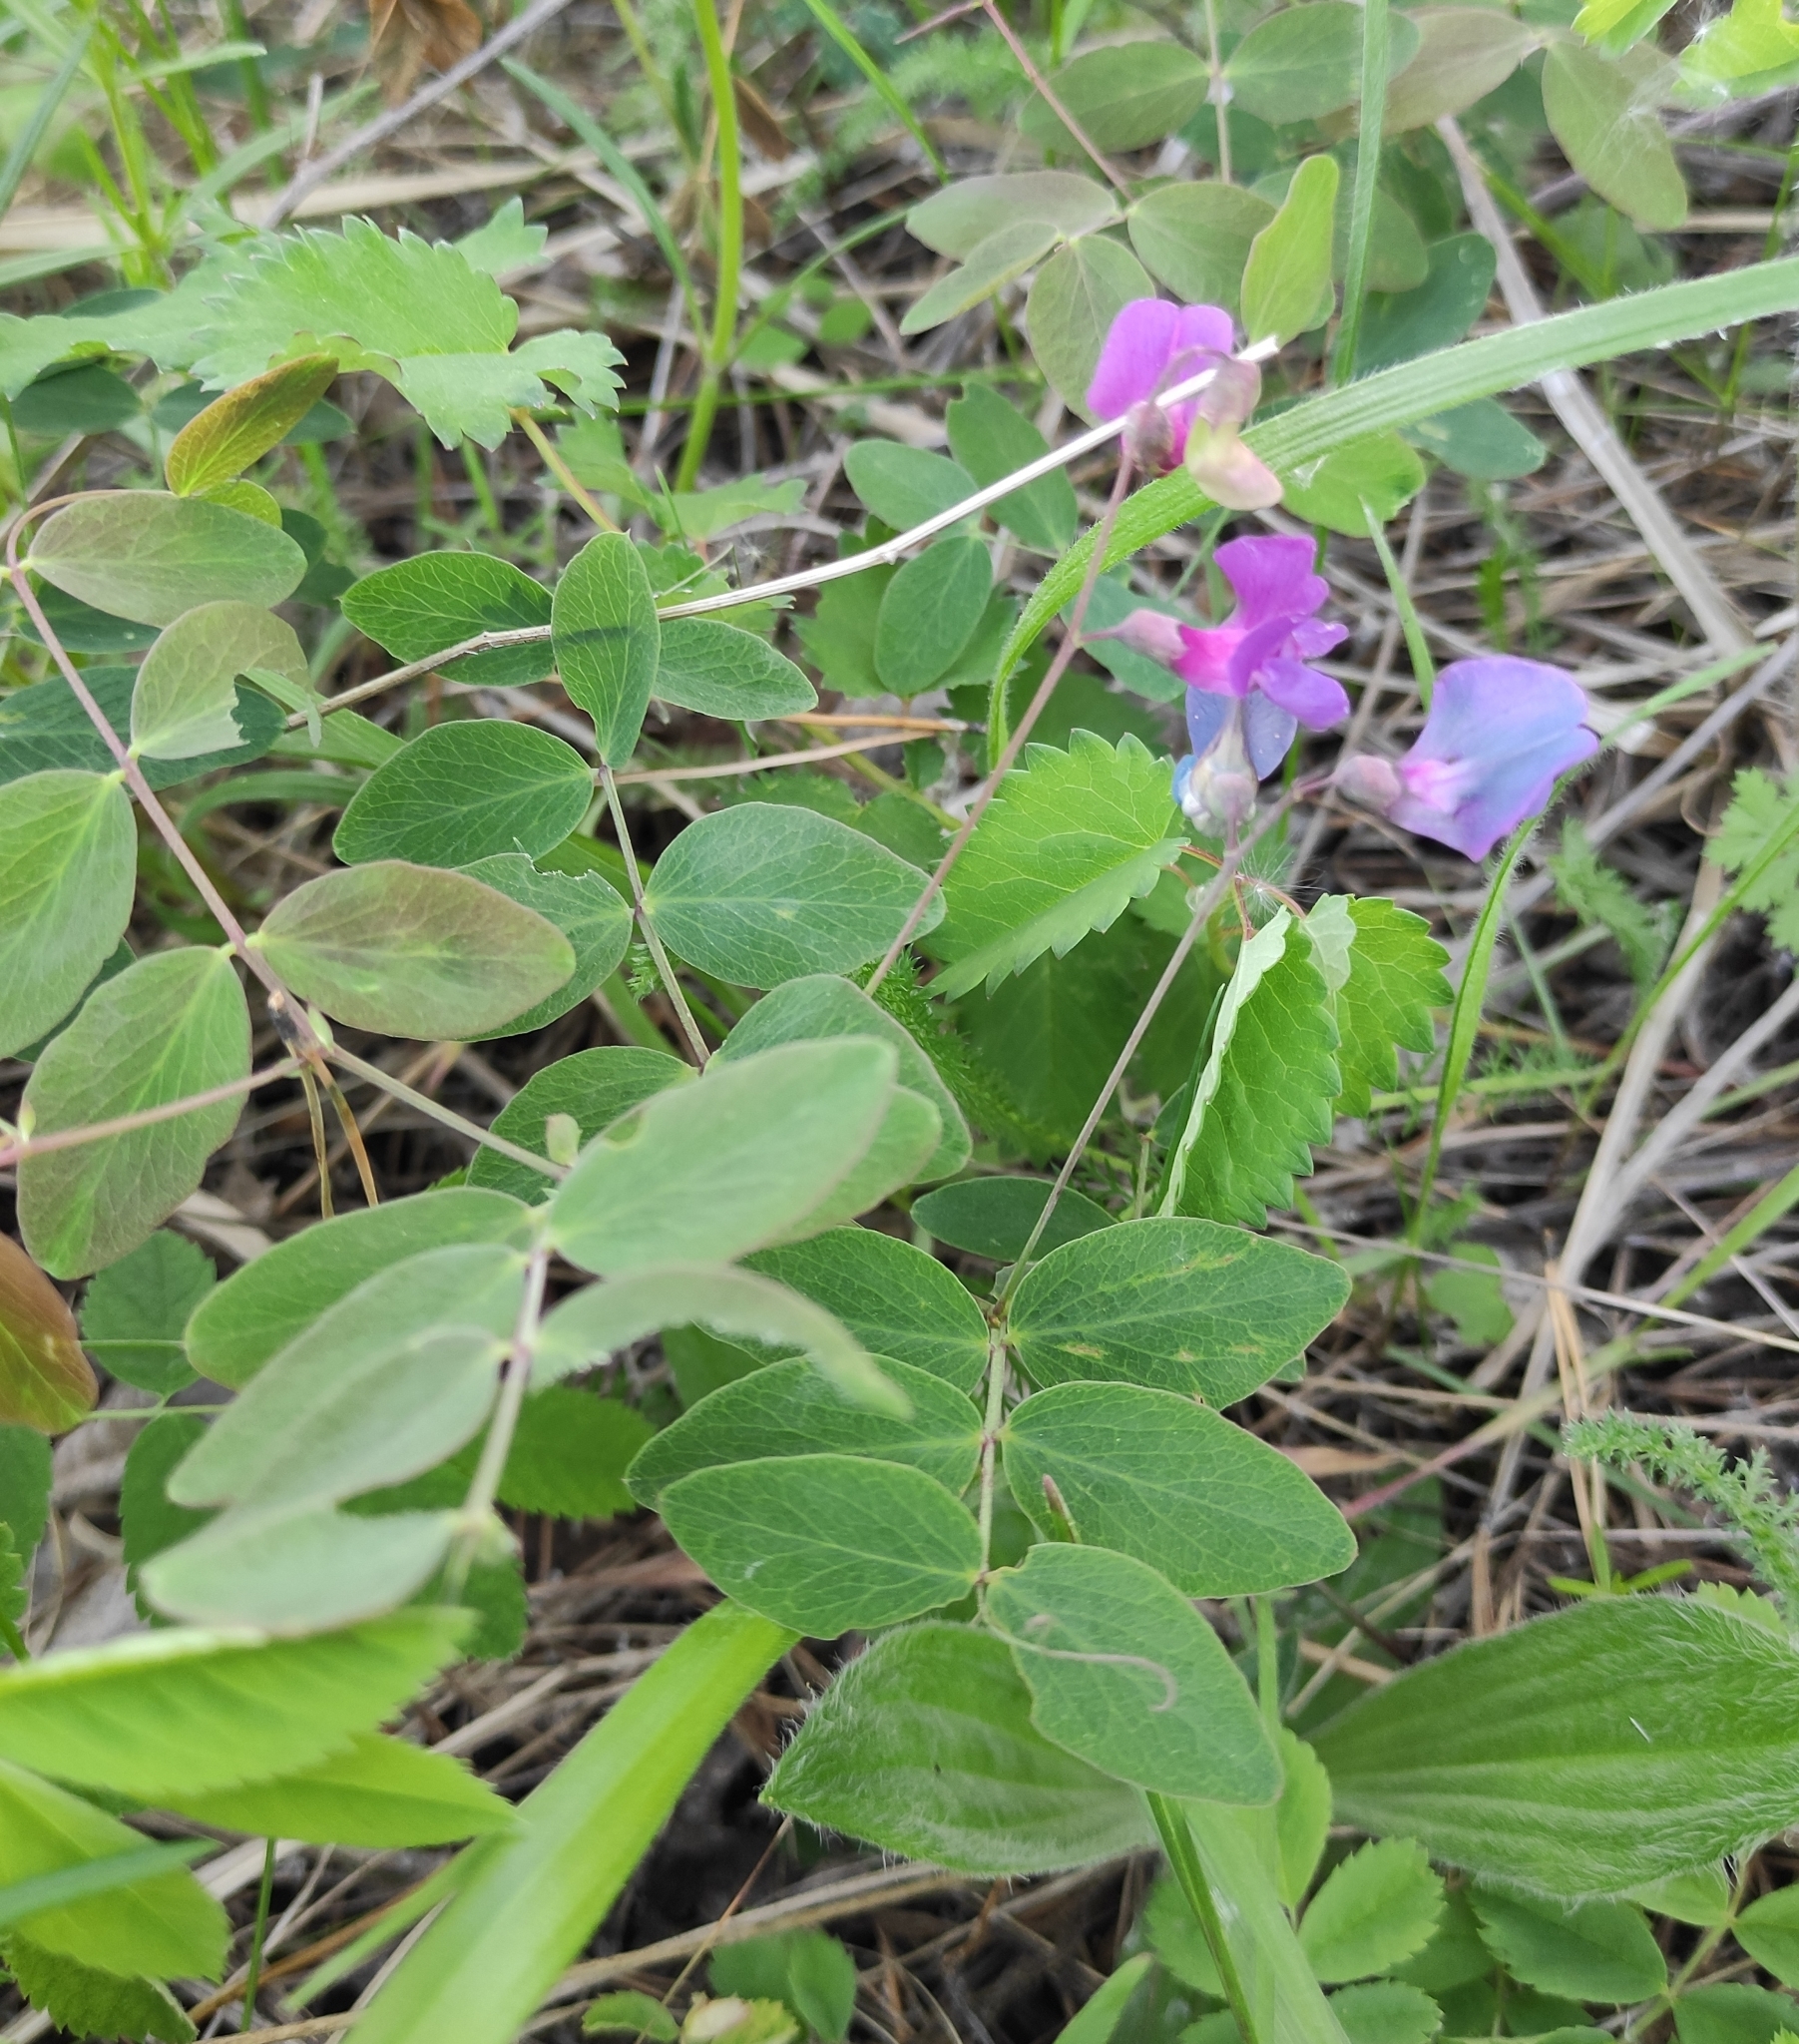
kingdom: Plantae
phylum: Tracheophyta
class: Magnoliopsida
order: Fabales
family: Fabaceae
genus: Lathyrus
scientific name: Lathyrus humilis
